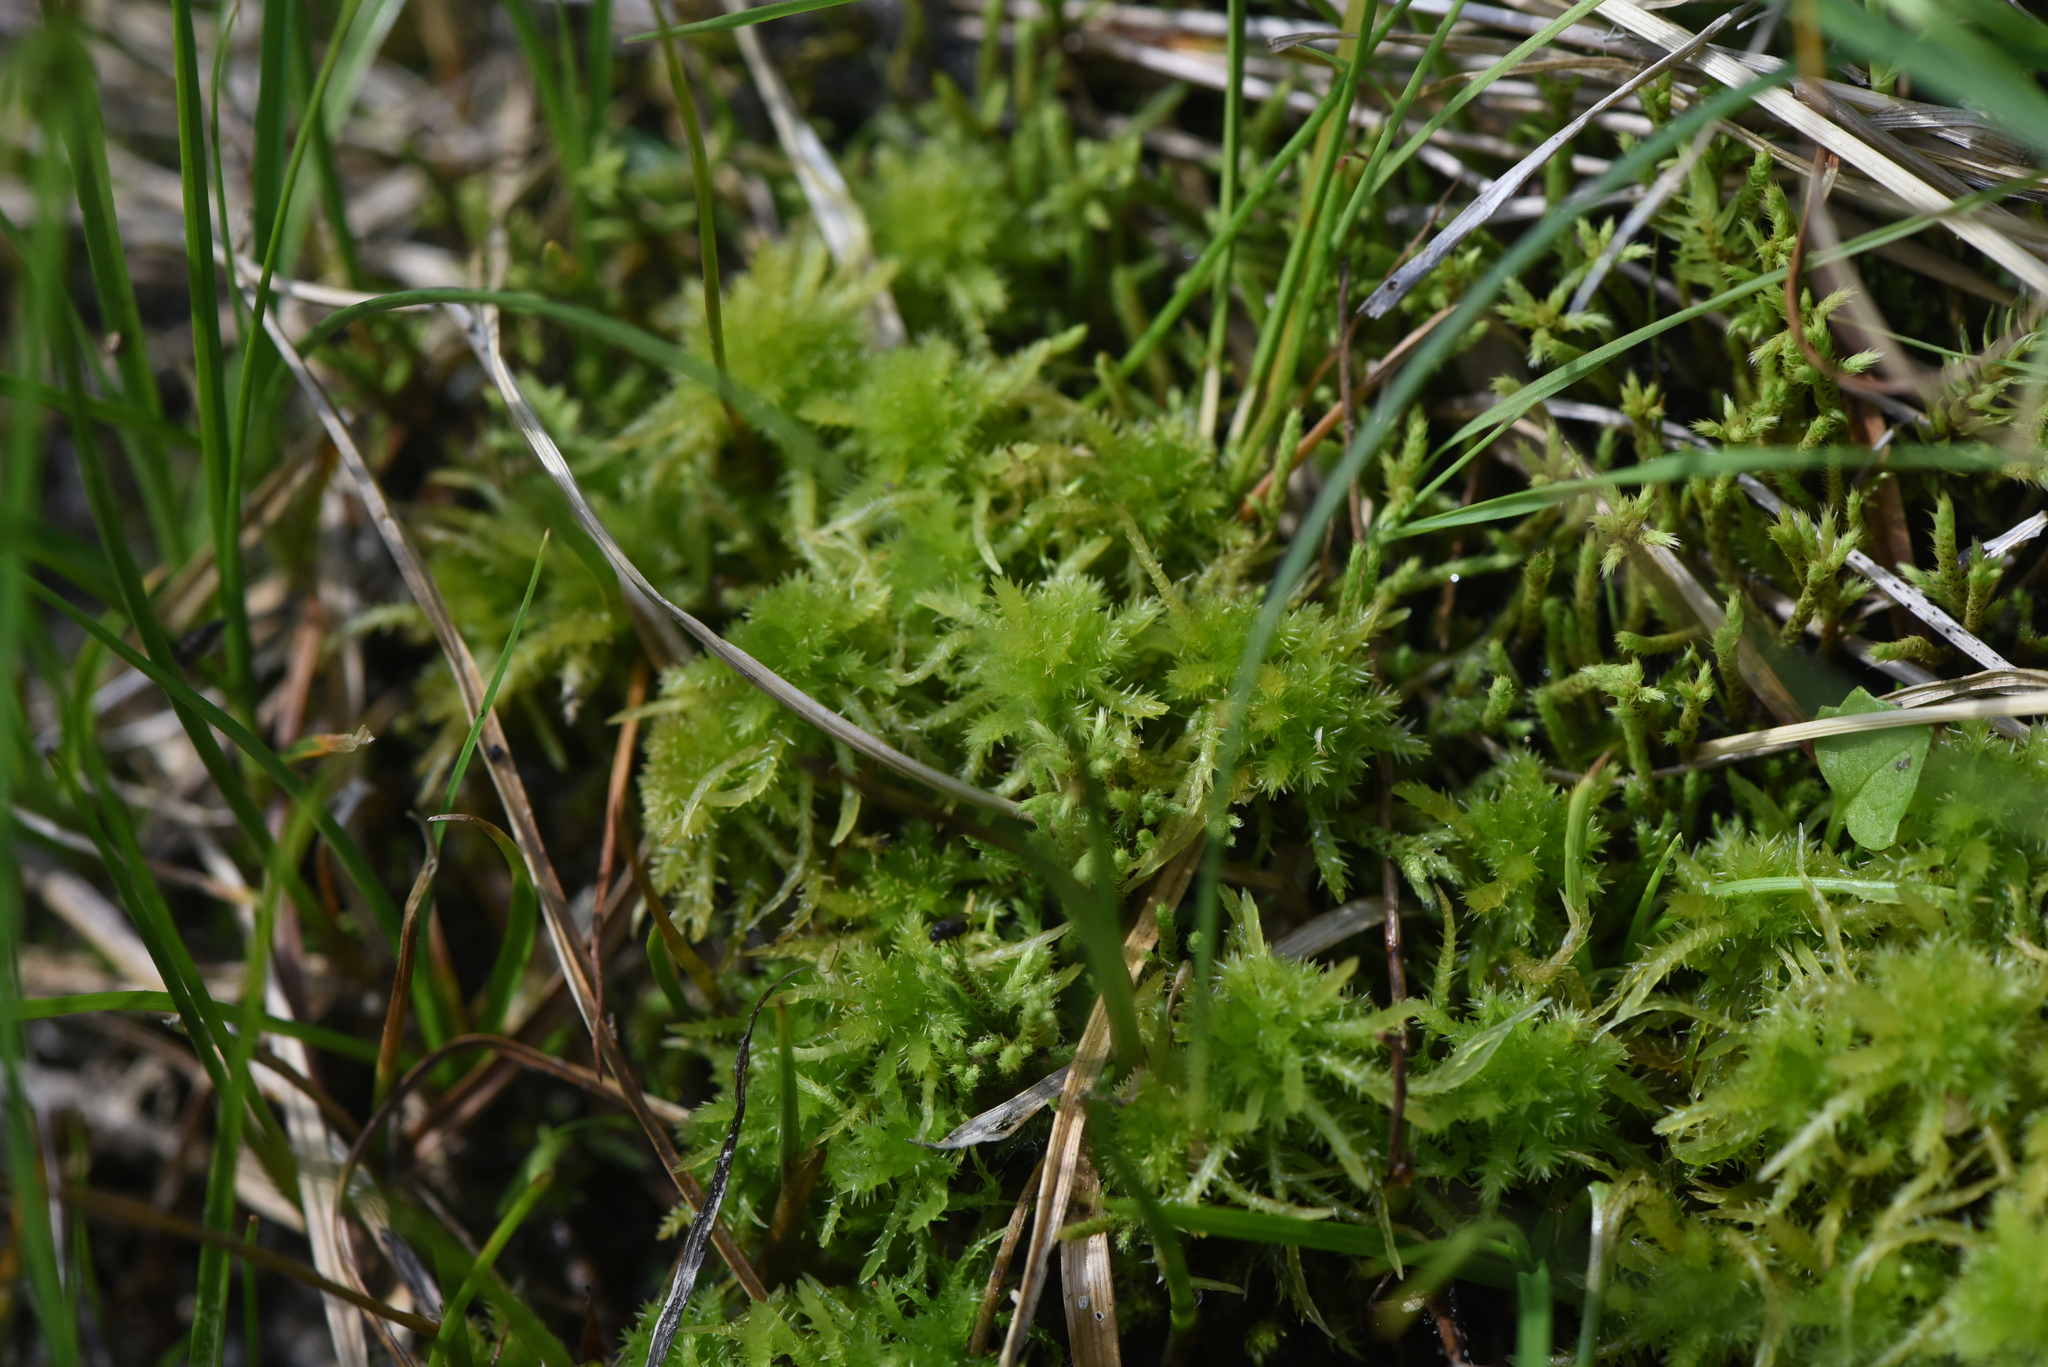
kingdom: Plantae
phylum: Bryophyta
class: Sphagnopsida
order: Sphagnales
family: Sphagnaceae
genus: Sphagnum
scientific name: Sphagnum squarrosum
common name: Shaggy peat moss
